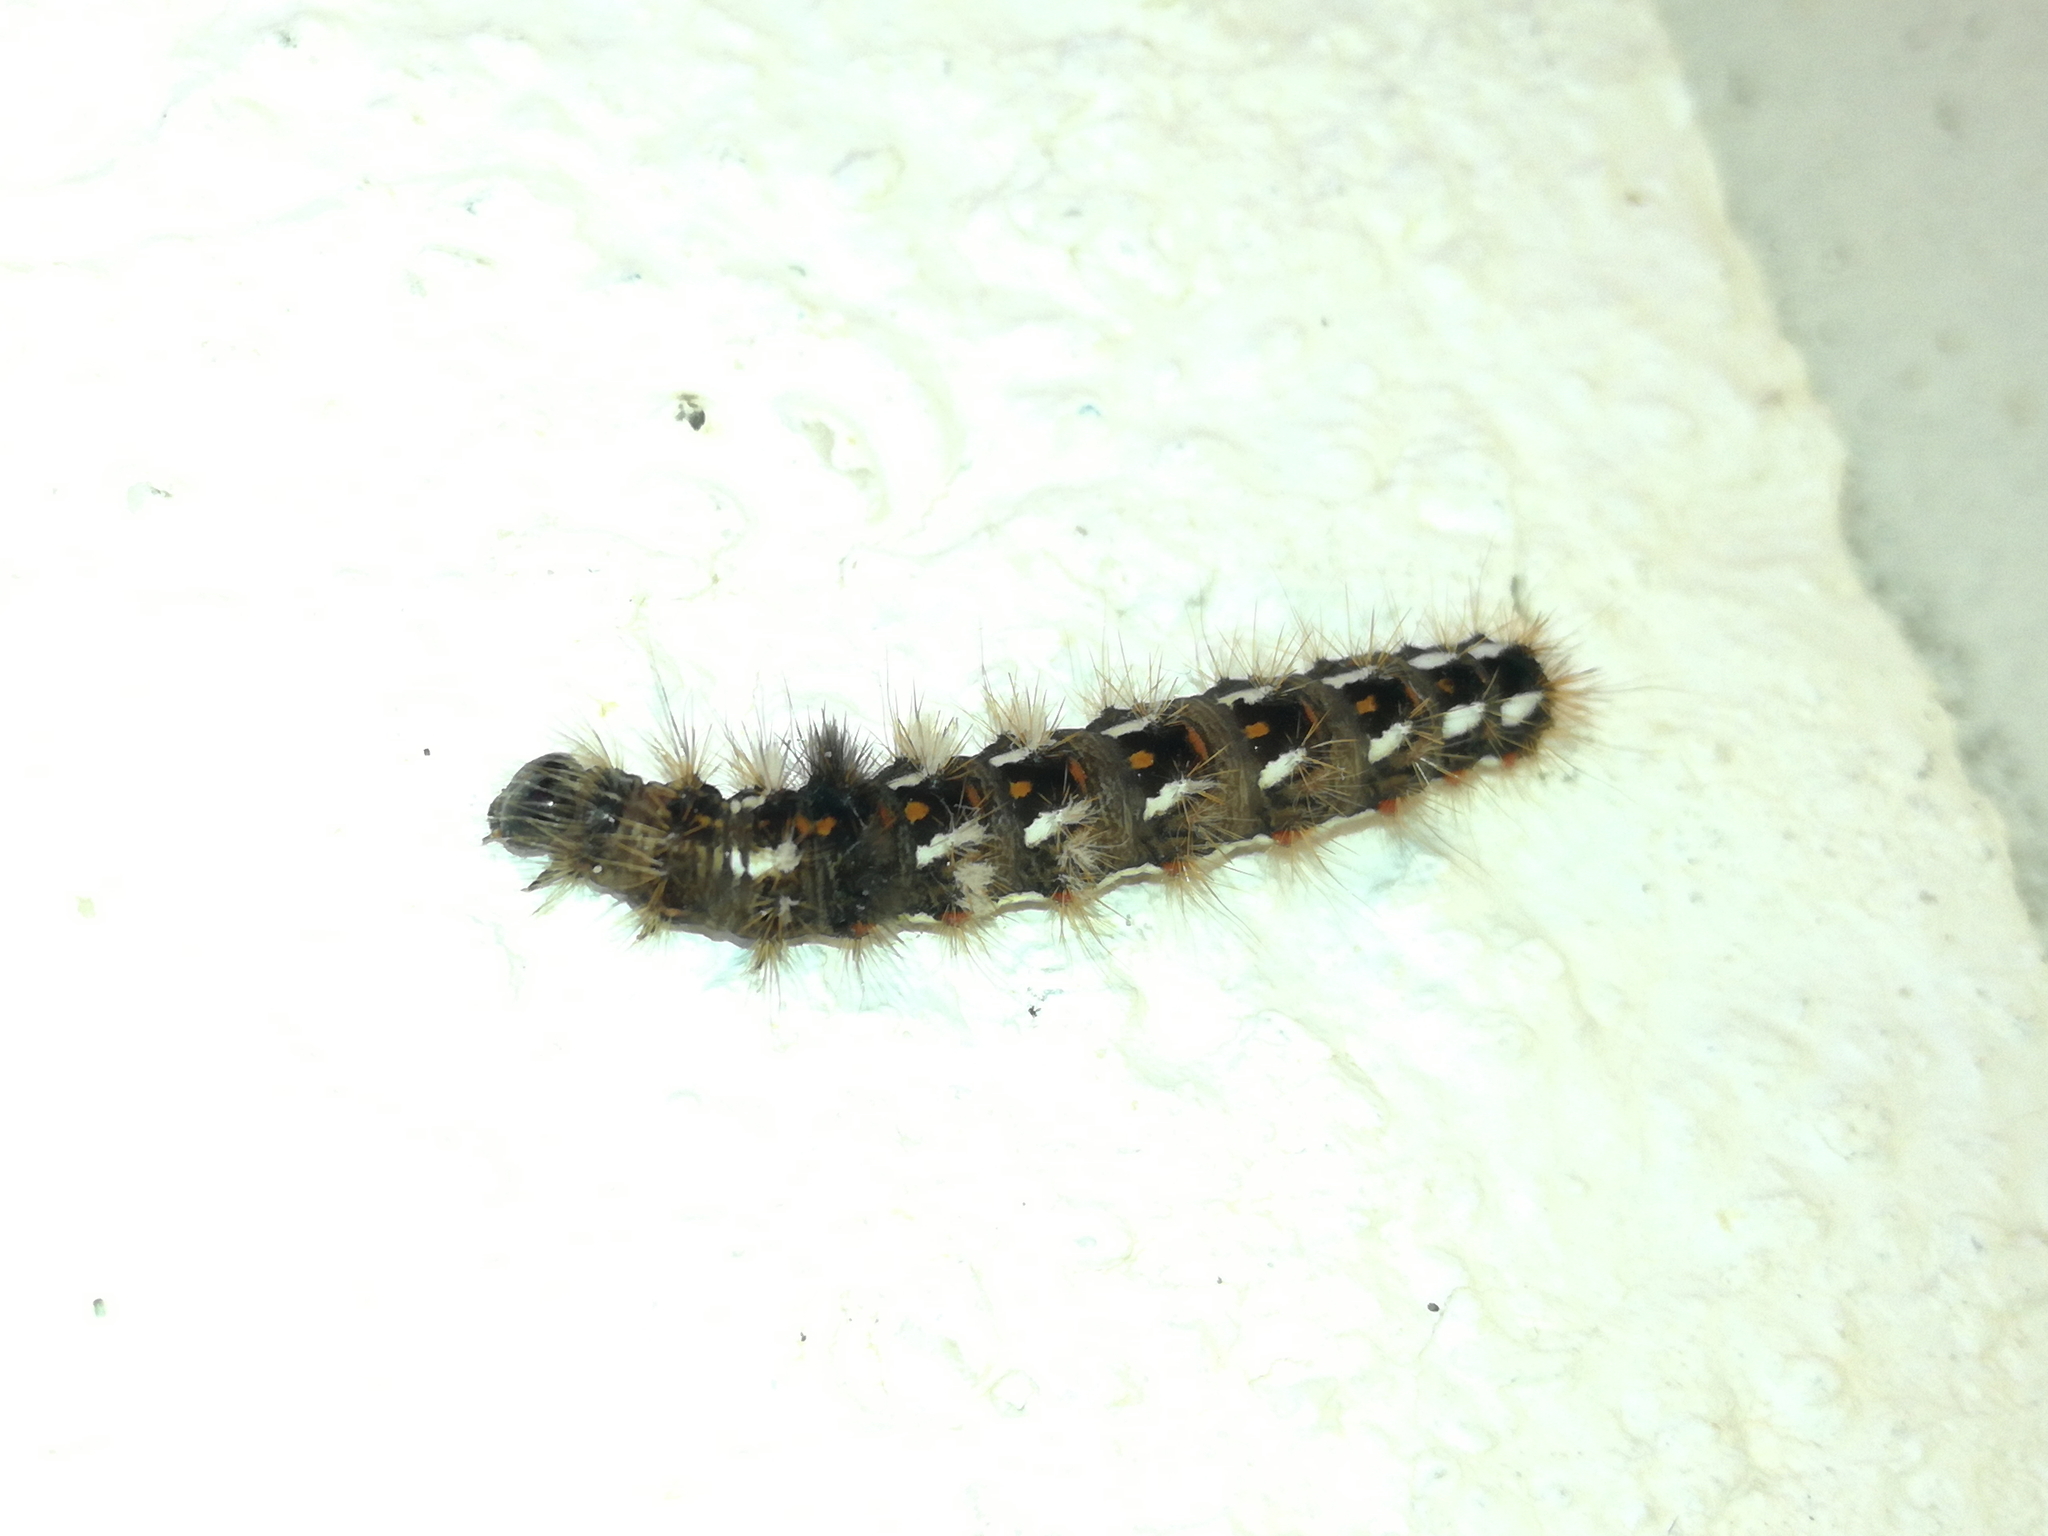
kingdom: Animalia
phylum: Arthropoda
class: Insecta
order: Lepidoptera
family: Noctuidae
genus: Acronicta
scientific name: Acronicta rumicis
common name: Knot grass
